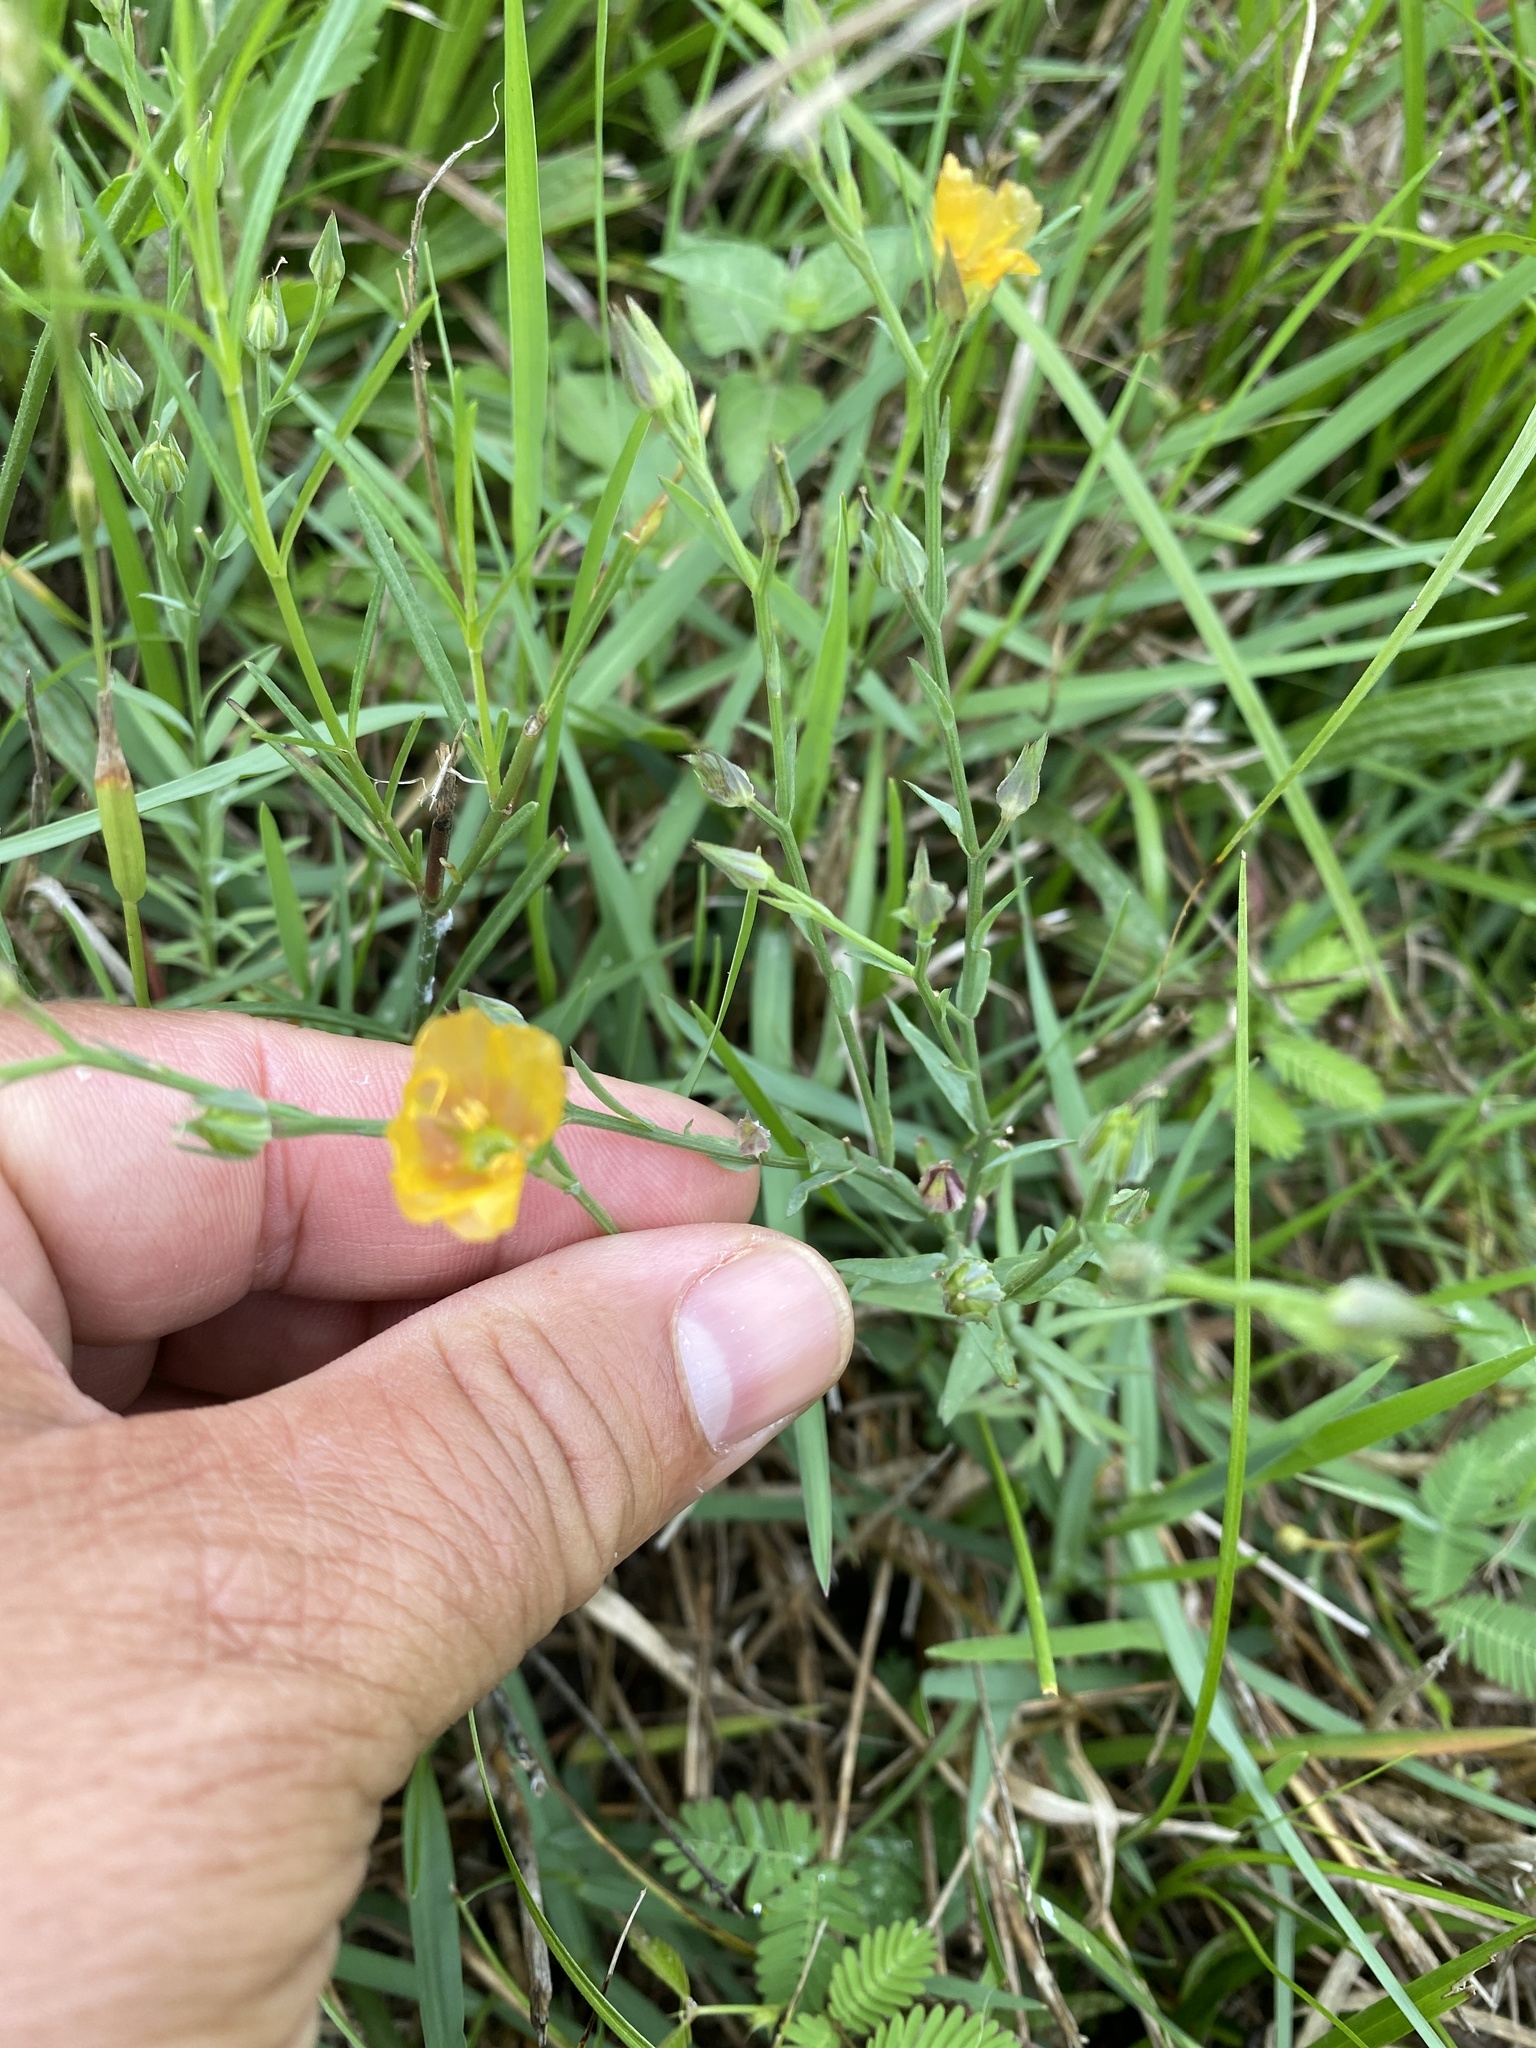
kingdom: Plantae
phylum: Tracheophyta
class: Magnoliopsida
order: Malpighiales
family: Linaceae
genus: Linum
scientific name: Linum berlandieri
